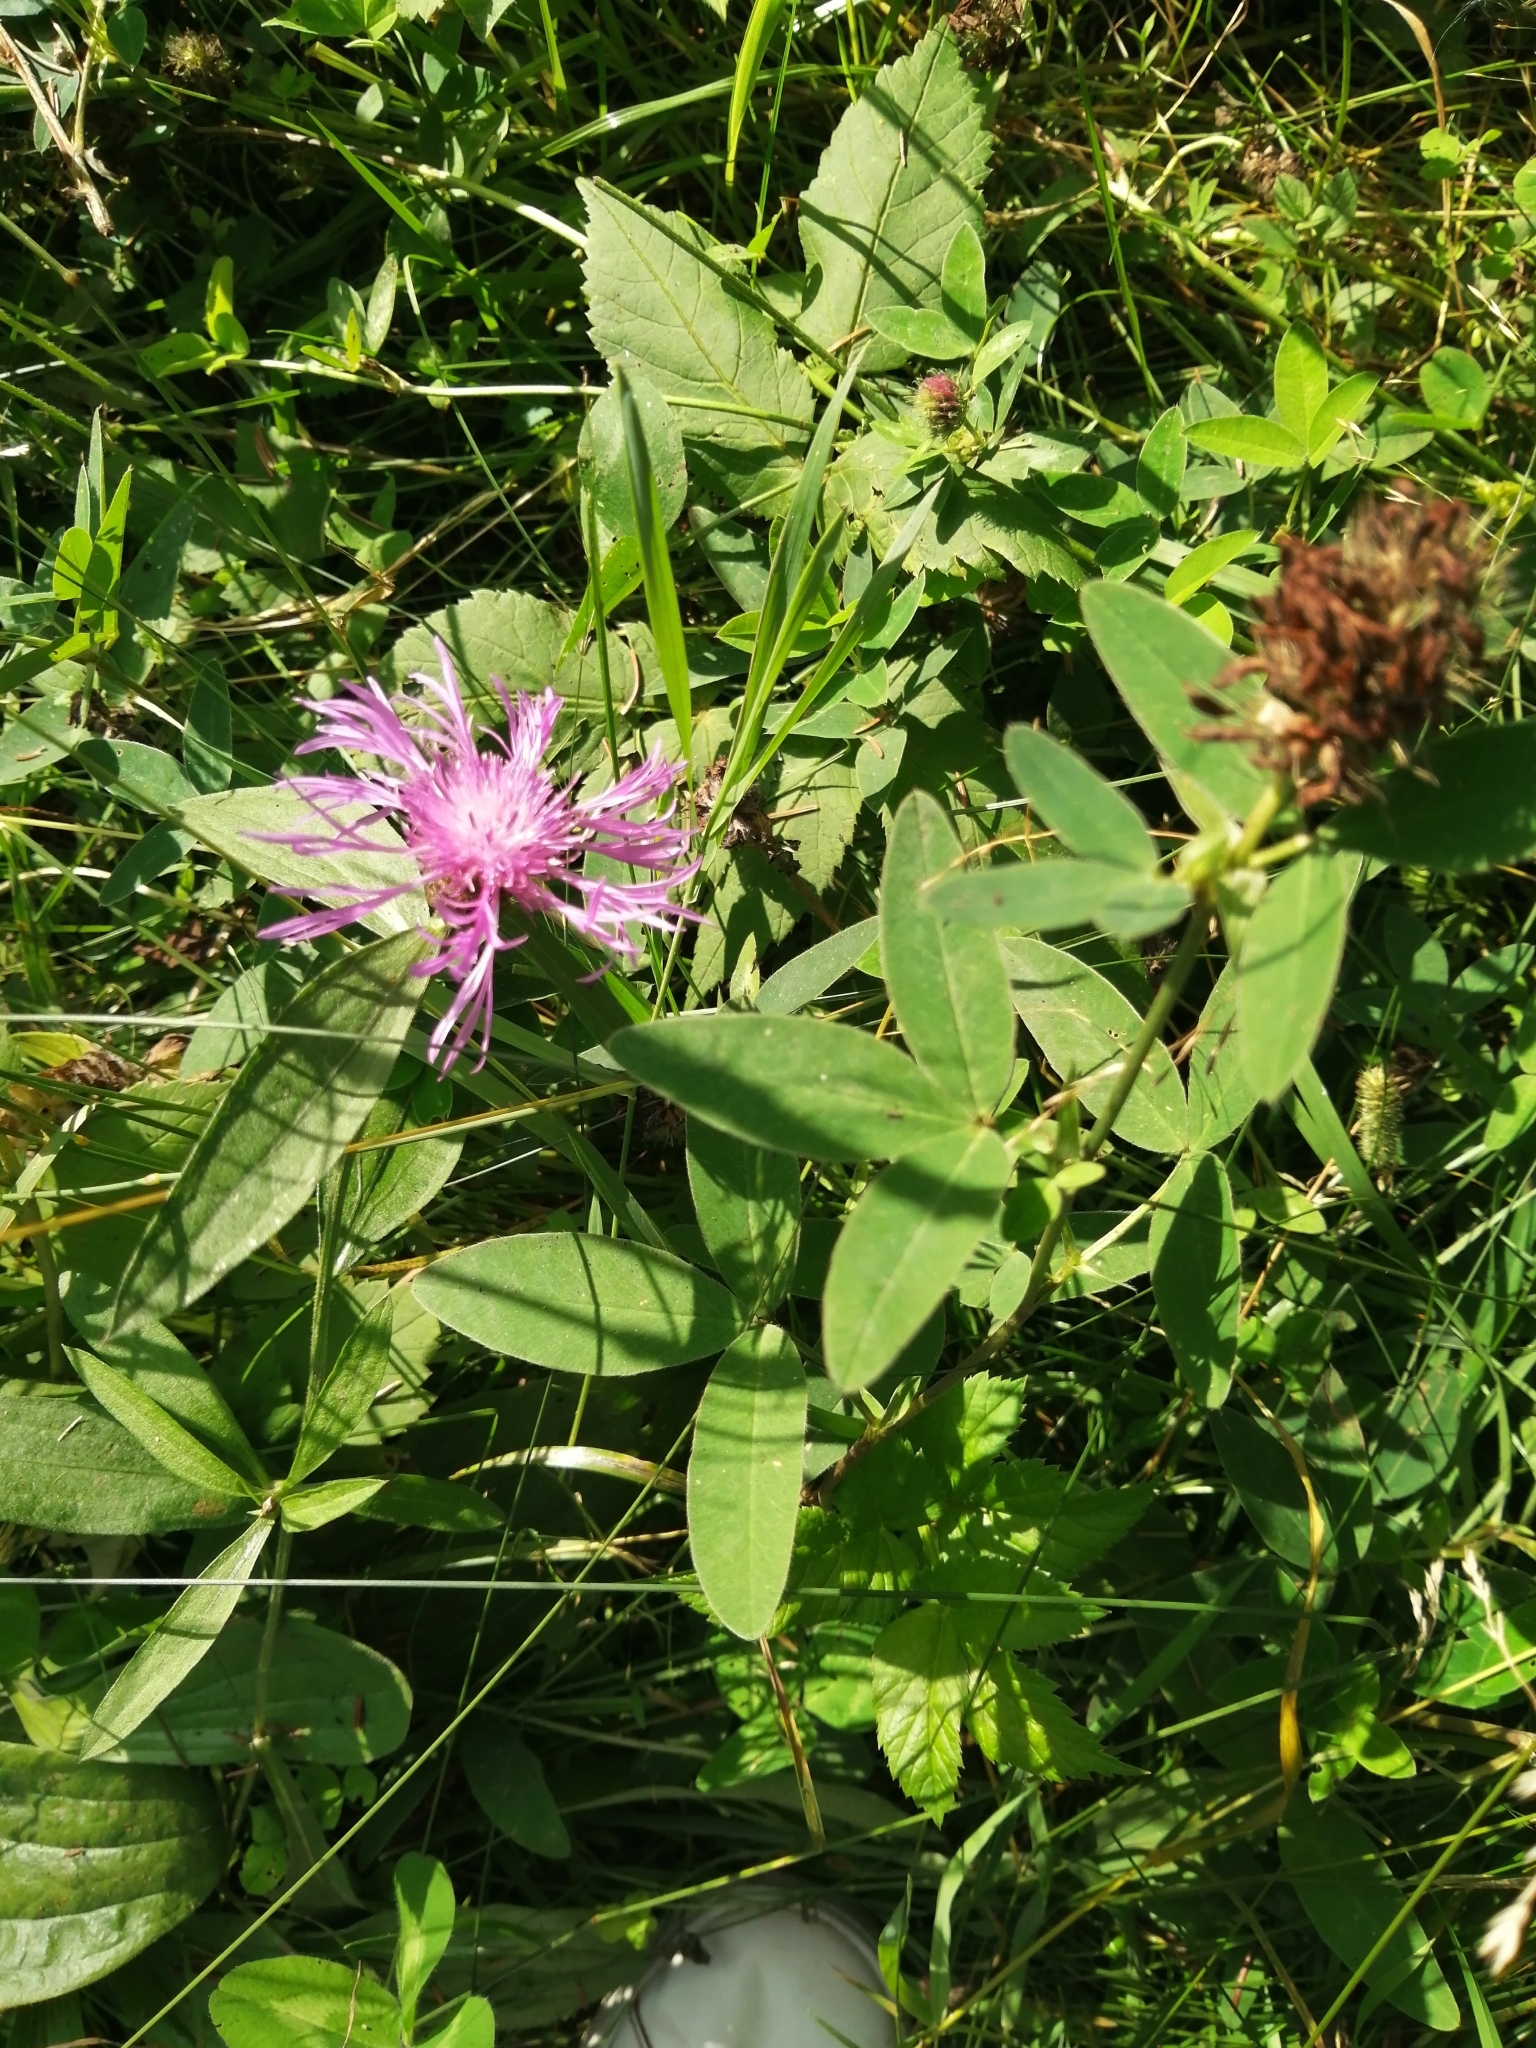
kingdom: Plantae
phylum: Tracheophyta
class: Magnoliopsida
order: Asterales
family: Asteraceae
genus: Centaurea
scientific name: Centaurea jacea
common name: Brown knapweed
